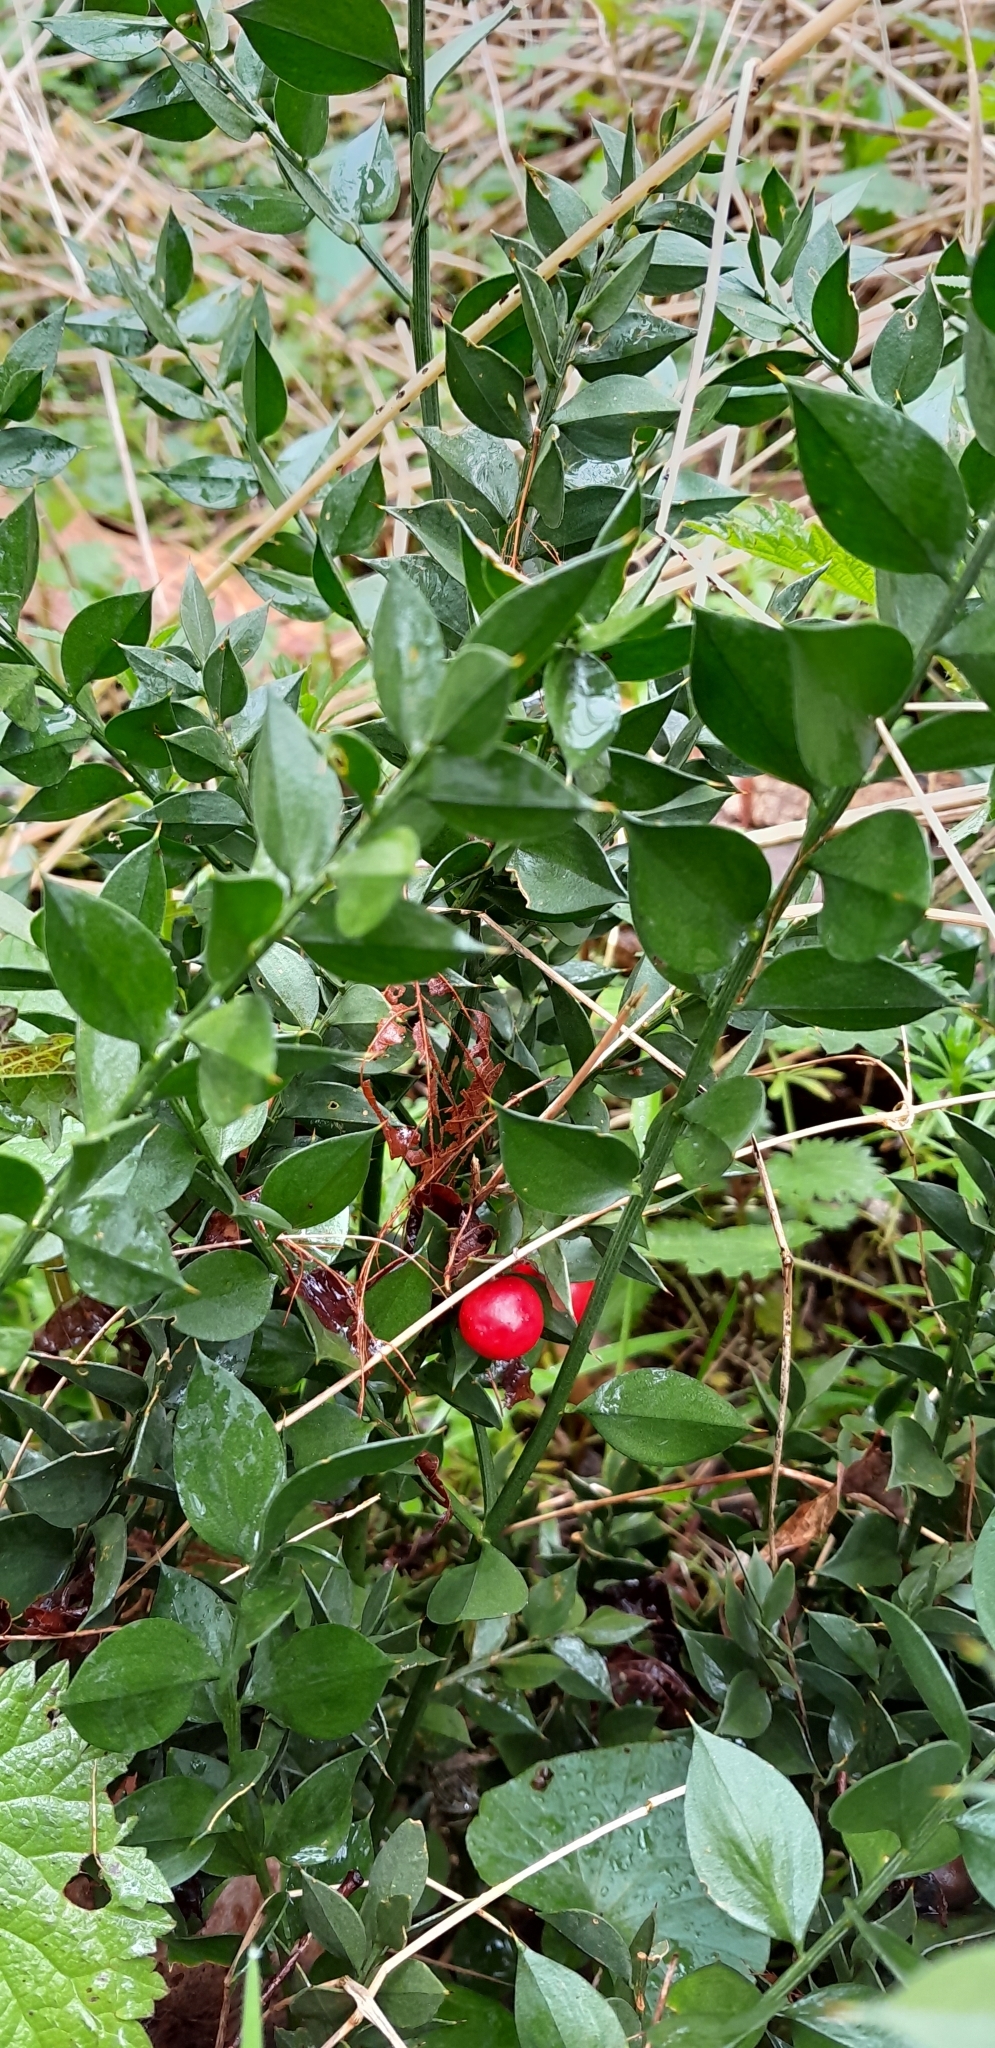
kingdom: Plantae
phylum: Tracheophyta
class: Liliopsida
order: Asparagales
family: Asparagaceae
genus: Ruscus
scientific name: Ruscus aculeatus
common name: Butcher's-broom
